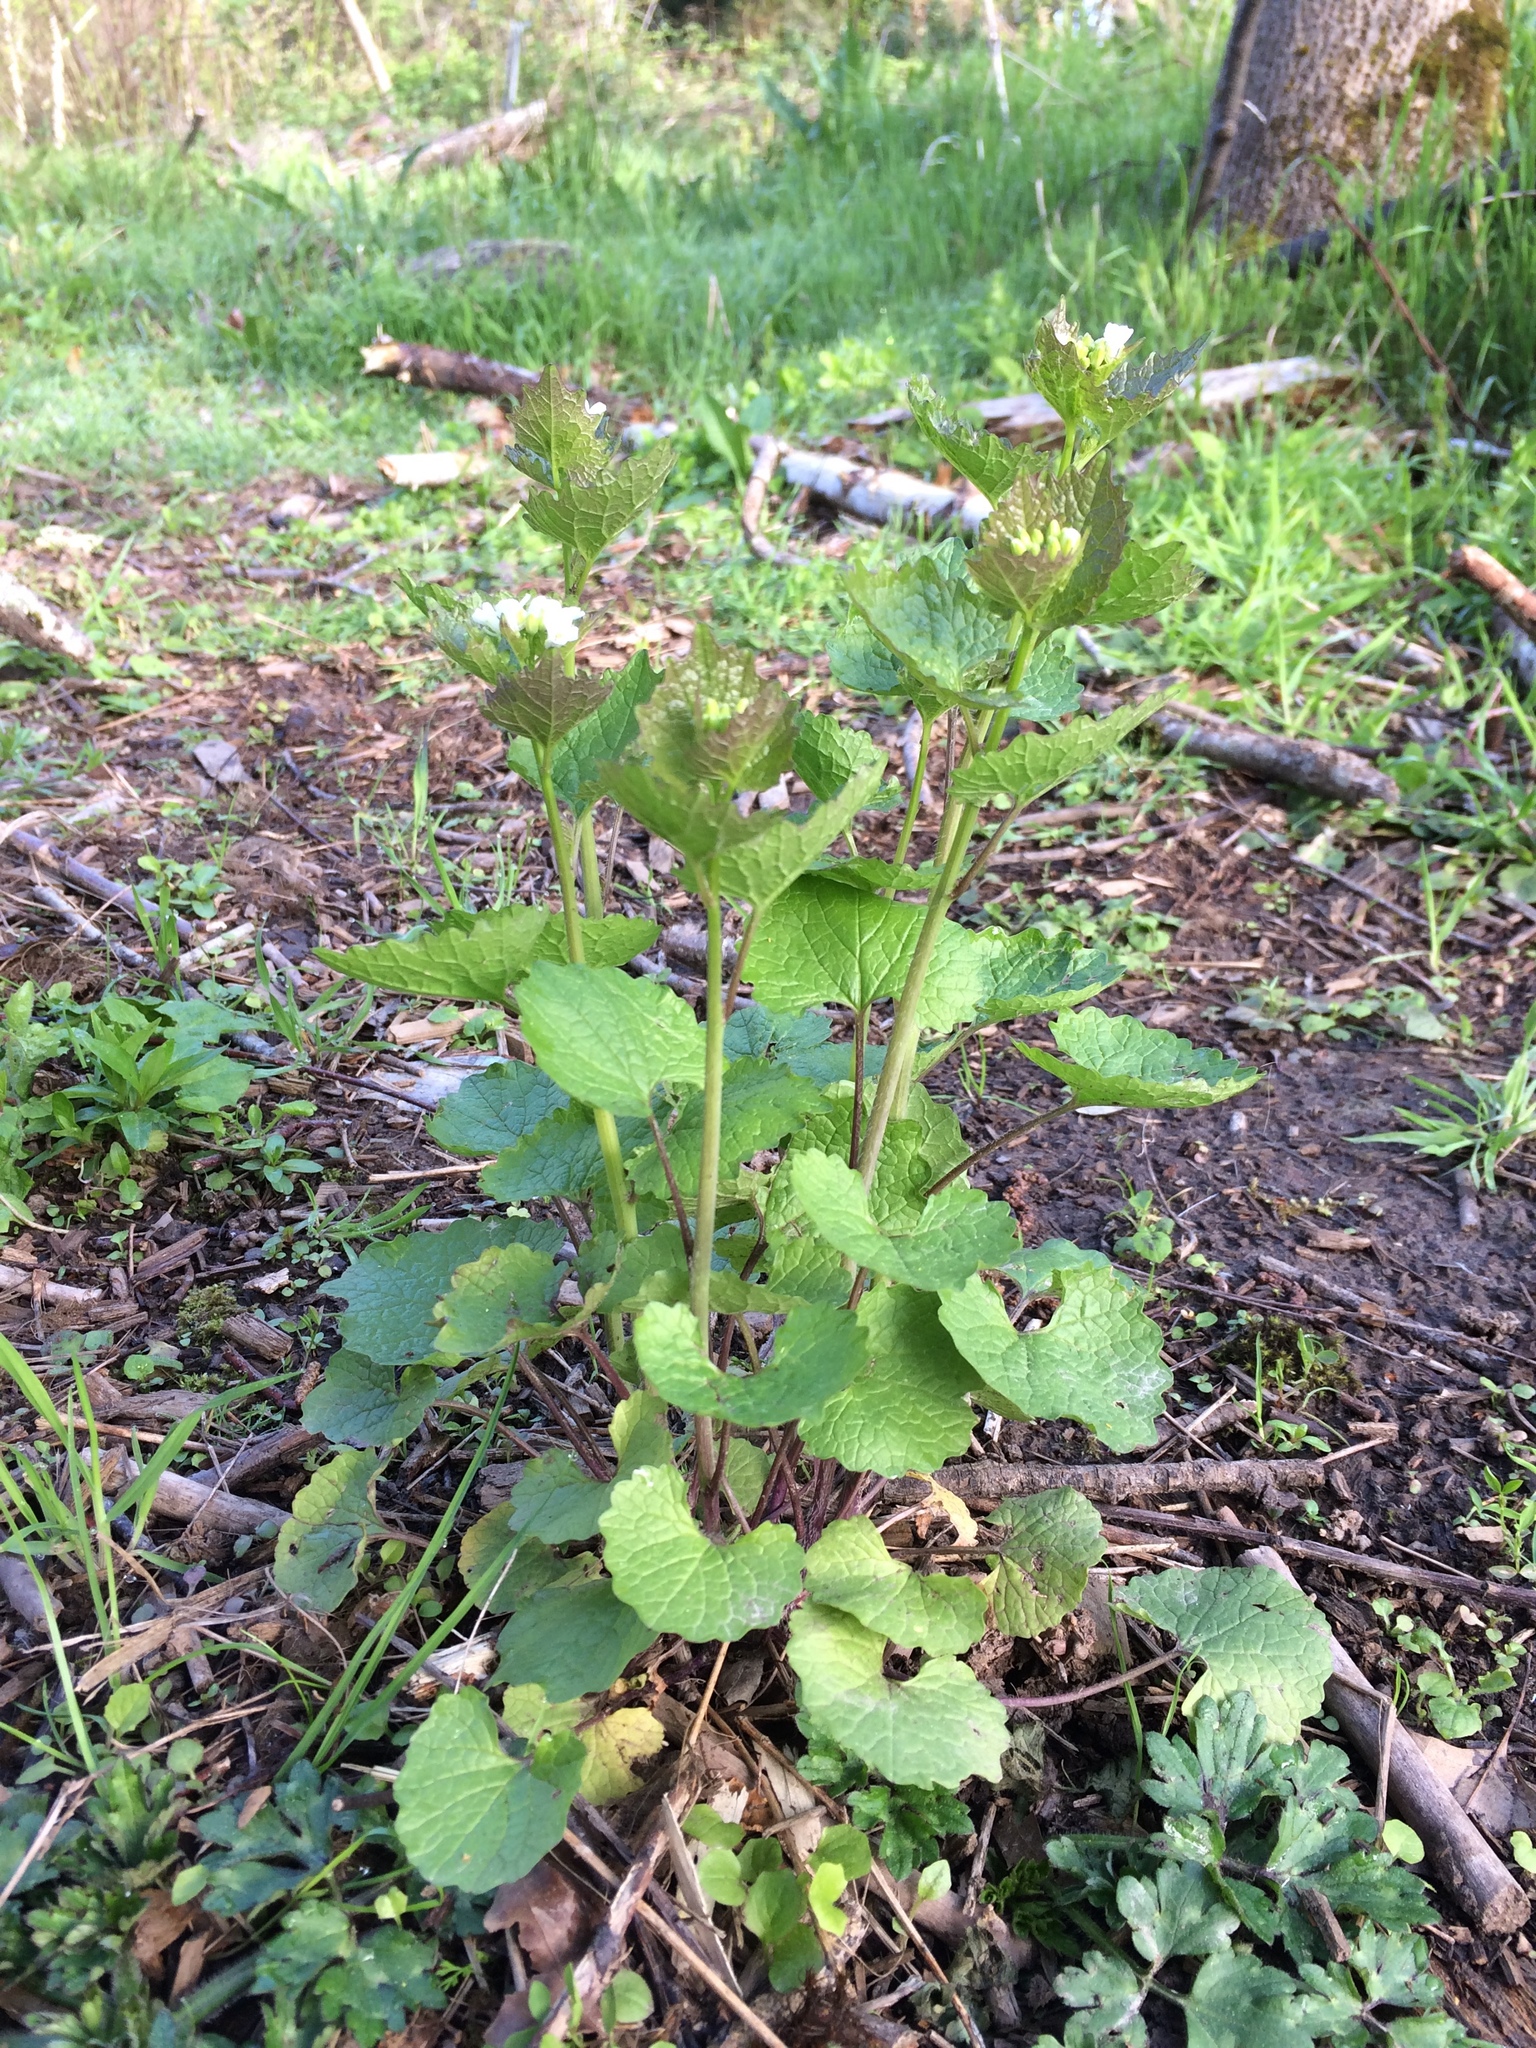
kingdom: Plantae
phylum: Tracheophyta
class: Magnoliopsida
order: Brassicales
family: Brassicaceae
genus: Alliaria
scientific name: Alliaria petiolata
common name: Garlic mustard
